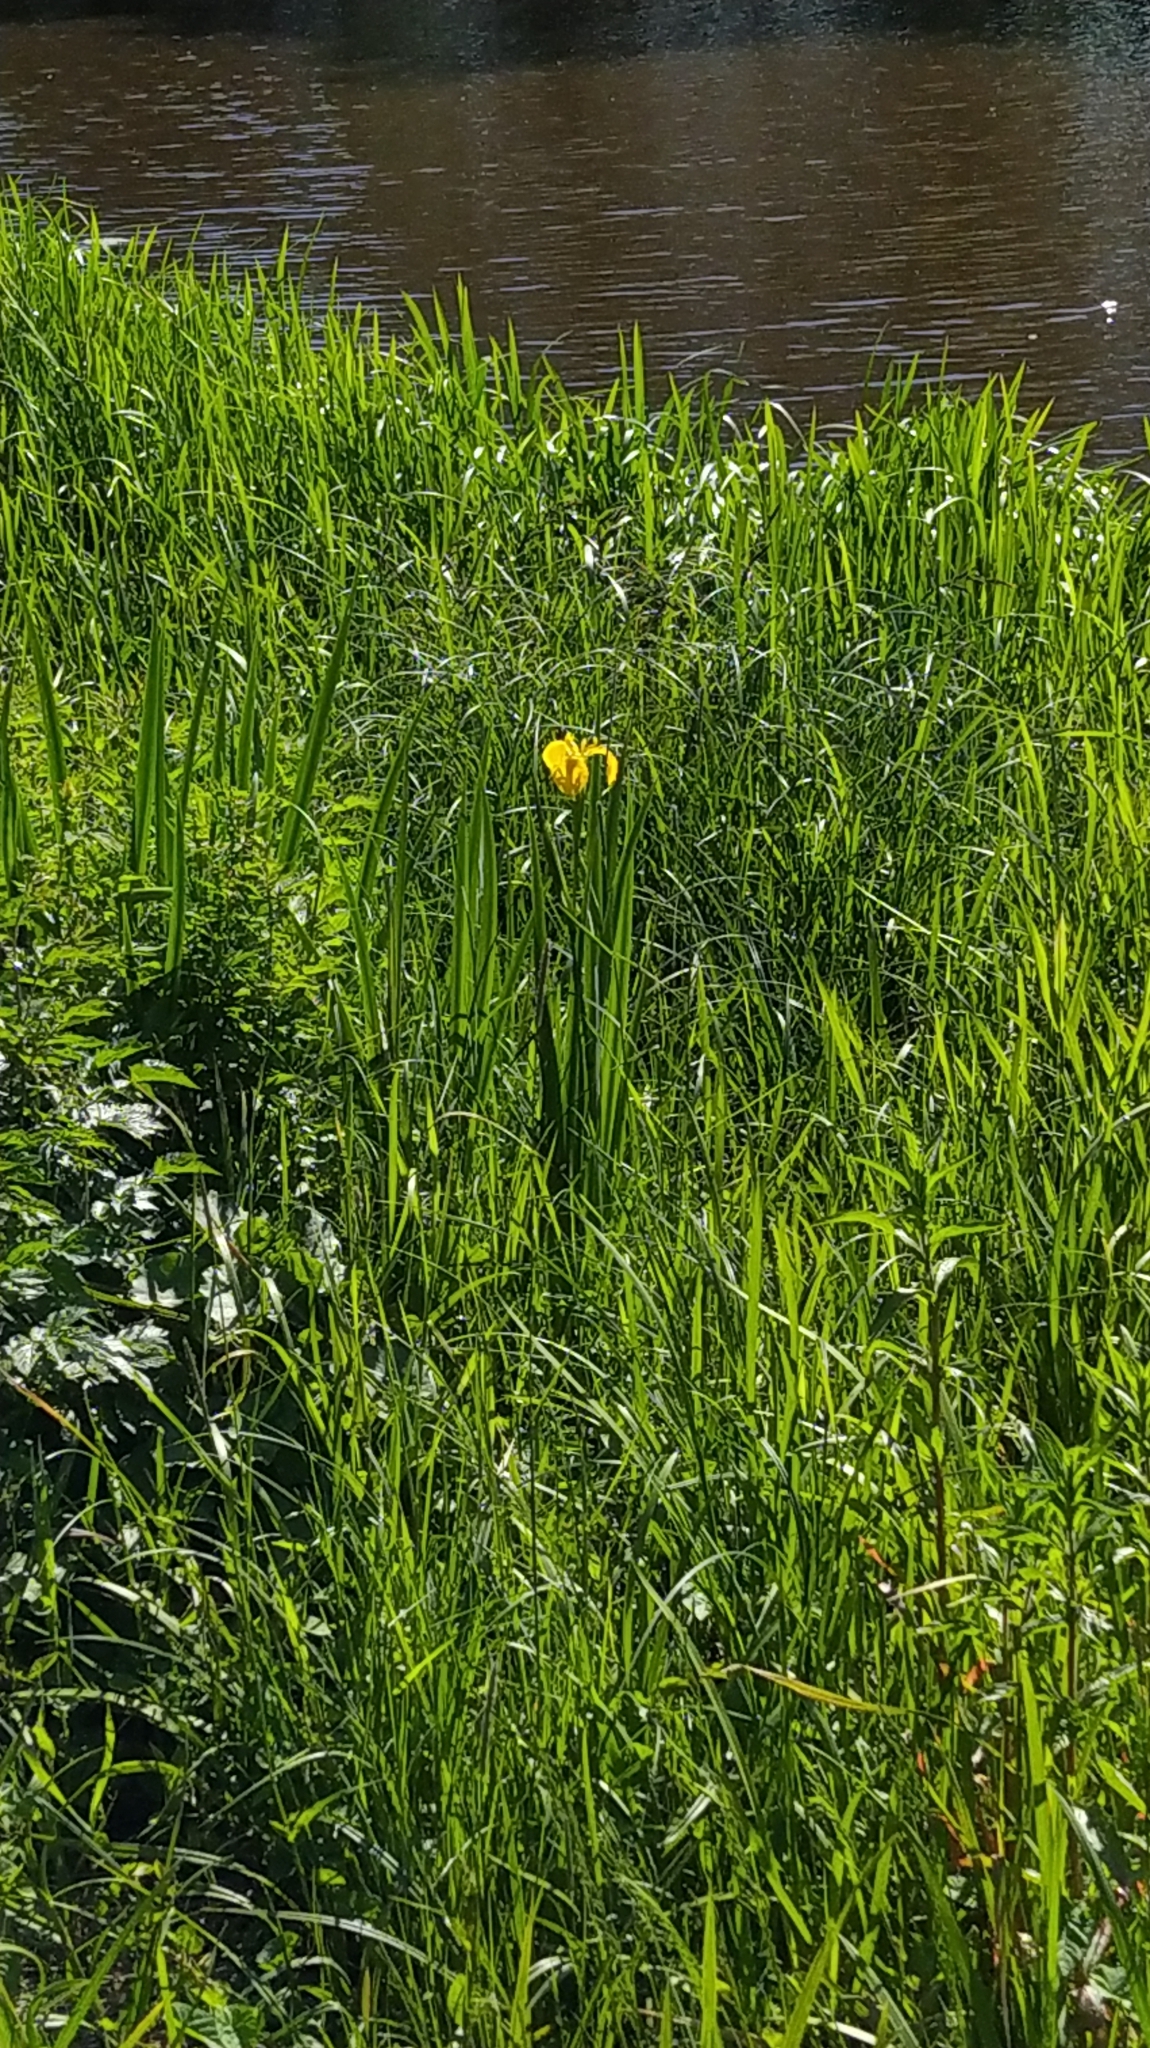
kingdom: Plantae
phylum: Tracheophyta
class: Liliopsida
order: Asparagales
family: Iridaceae
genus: Iris
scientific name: Iris pseudacorus
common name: Yellow flag
